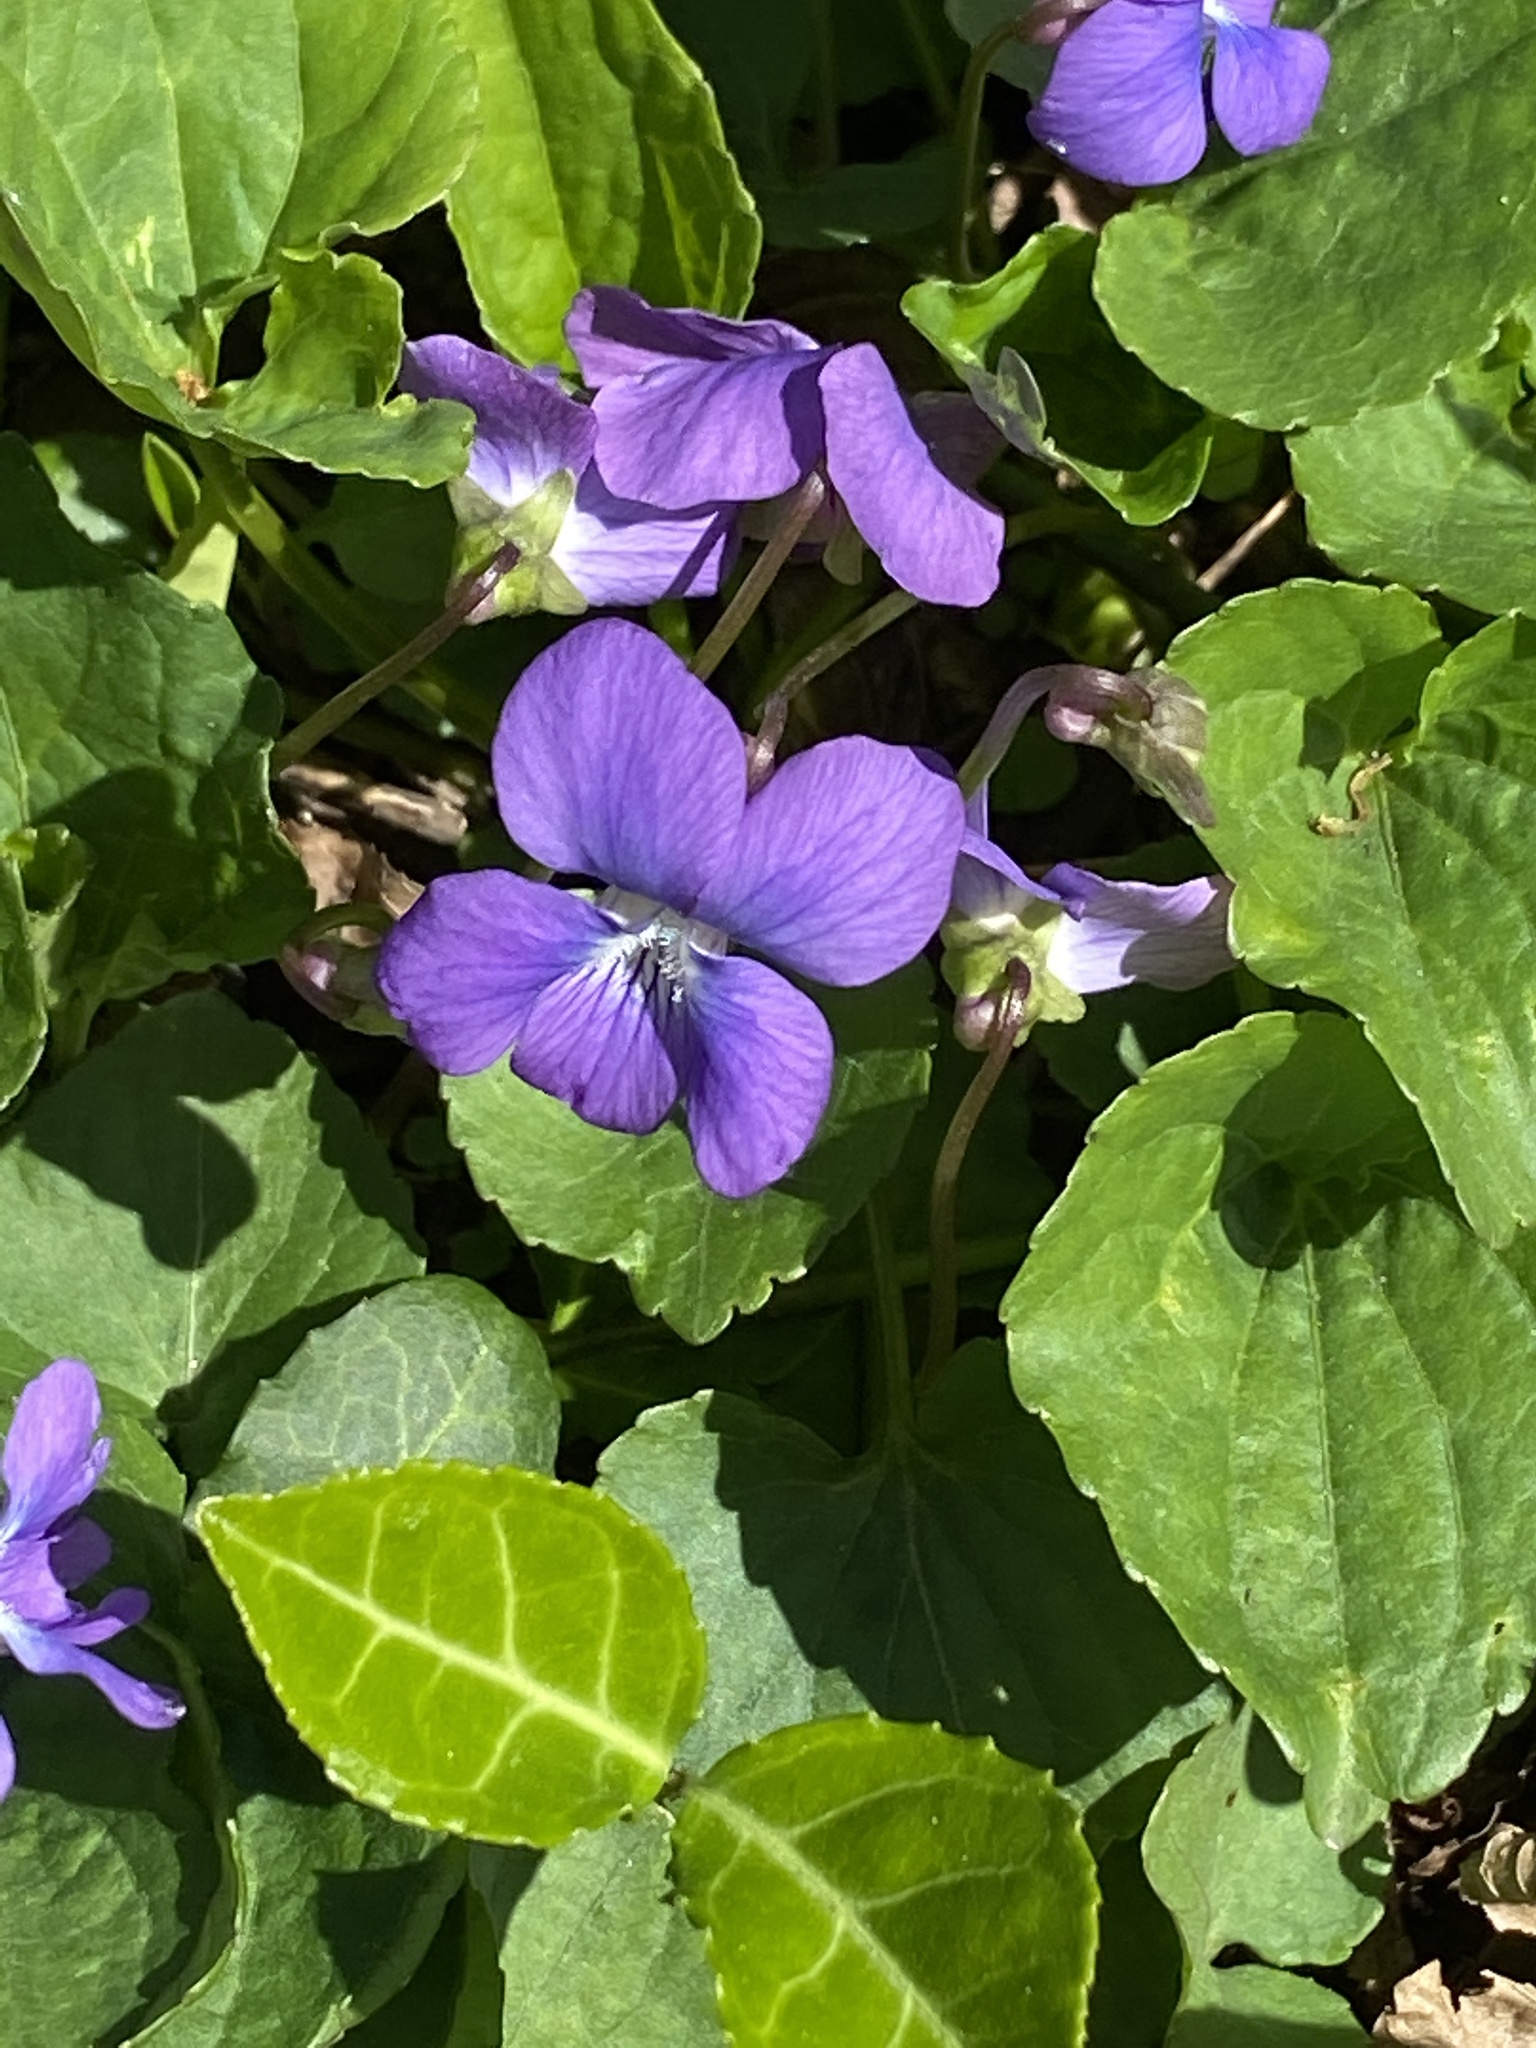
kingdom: Plantae
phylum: Tracheophyta
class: Magnoliopsida
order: Malpighiales
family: Violaceae
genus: Viola
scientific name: Viola sororia
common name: Dooryard violet
